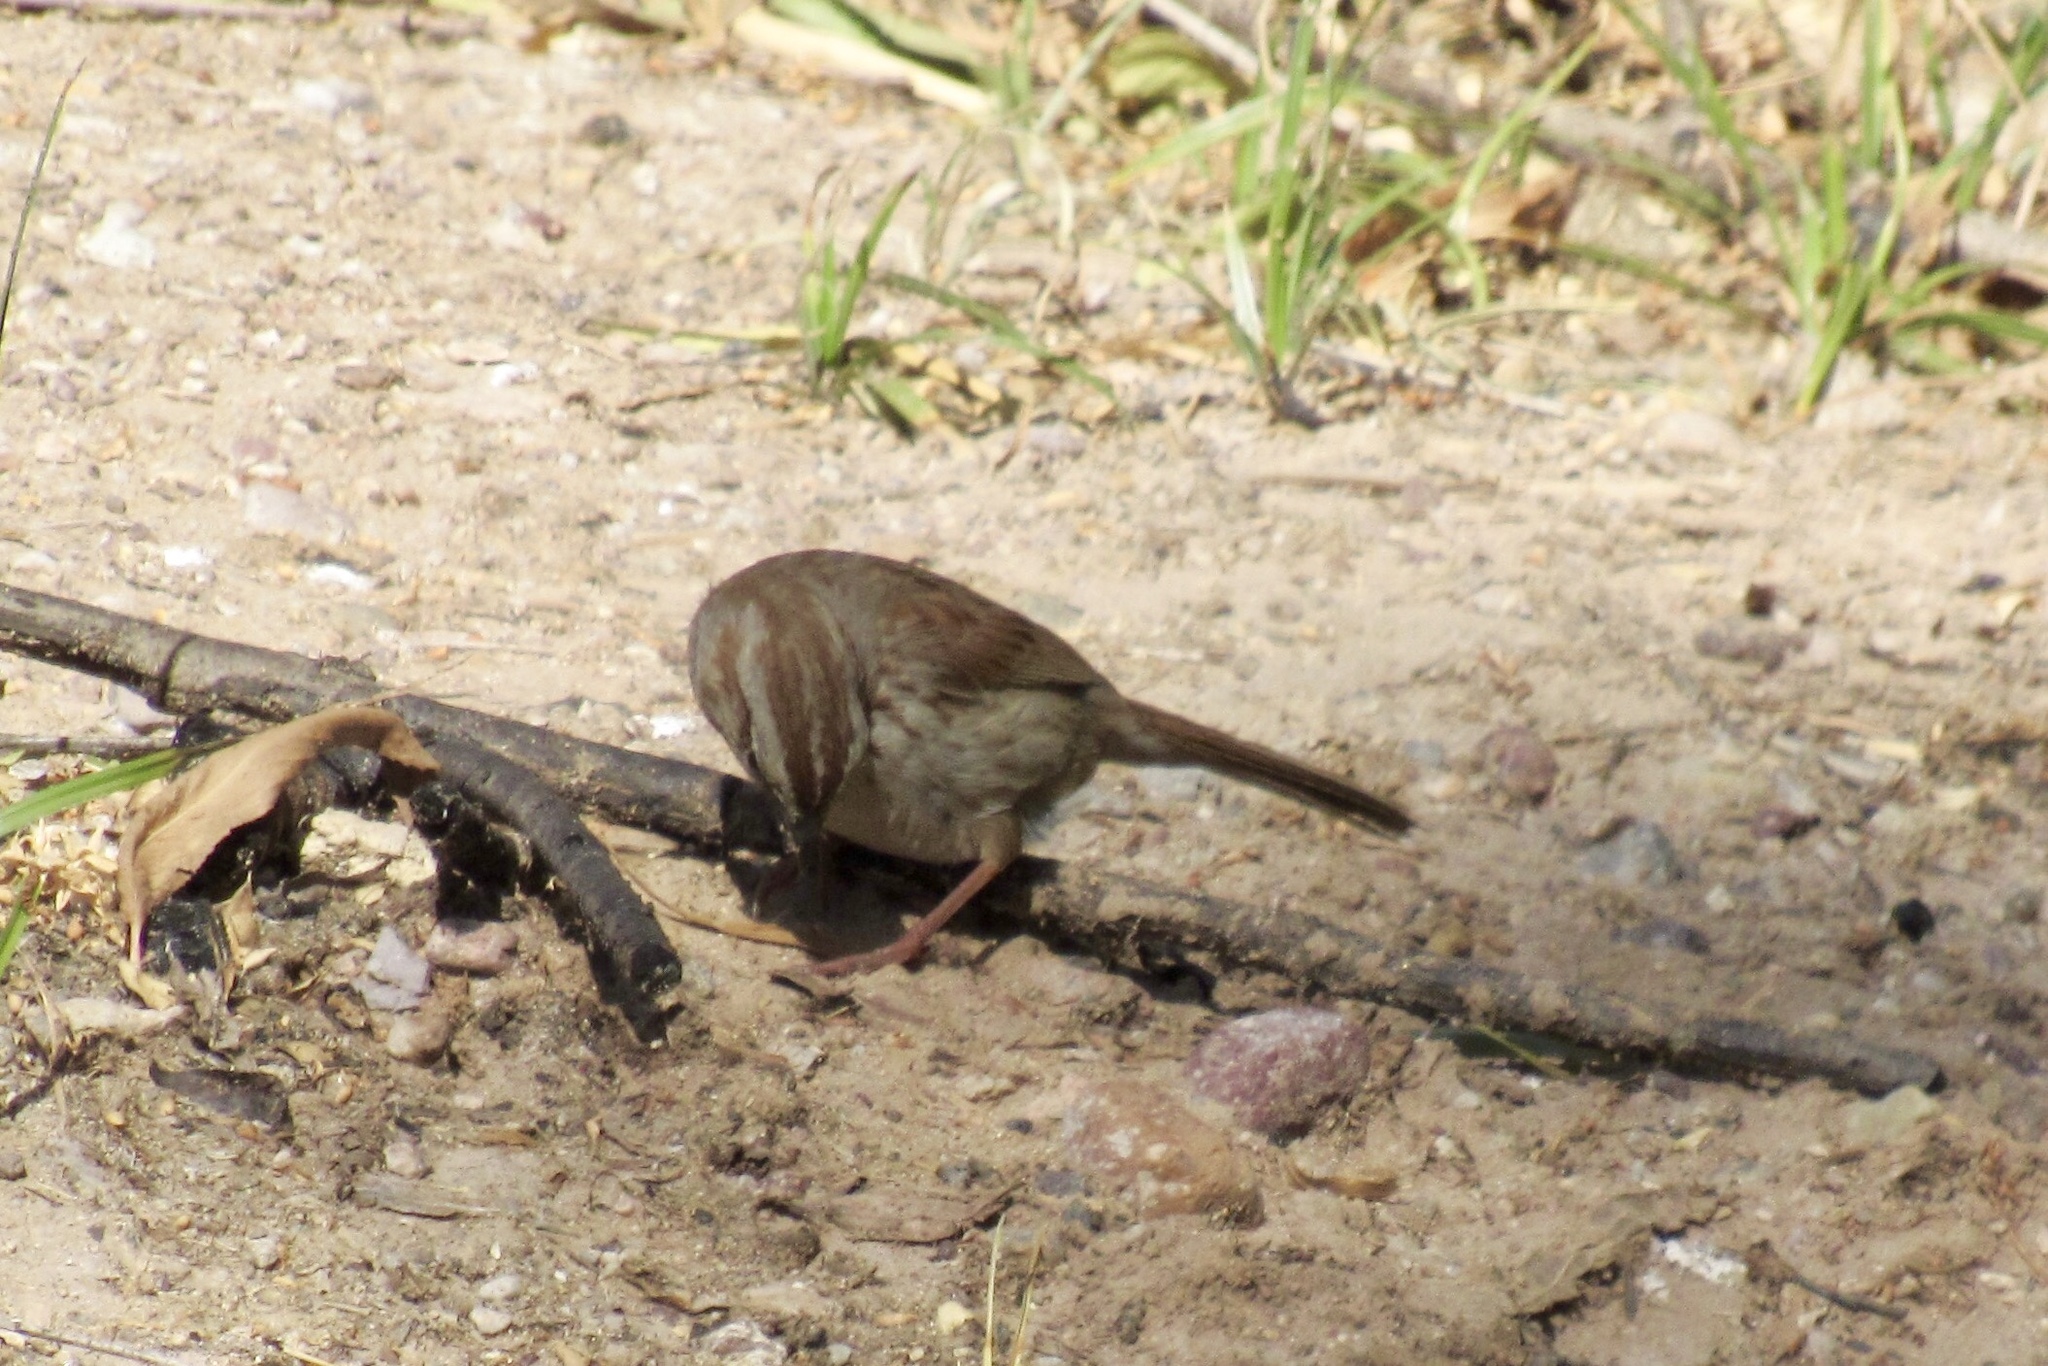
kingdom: Animalia
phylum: Chordata
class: Aves
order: Passeriformes
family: Passerellidae
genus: Melospiza
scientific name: Melospiza melodia
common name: Song sparrow
